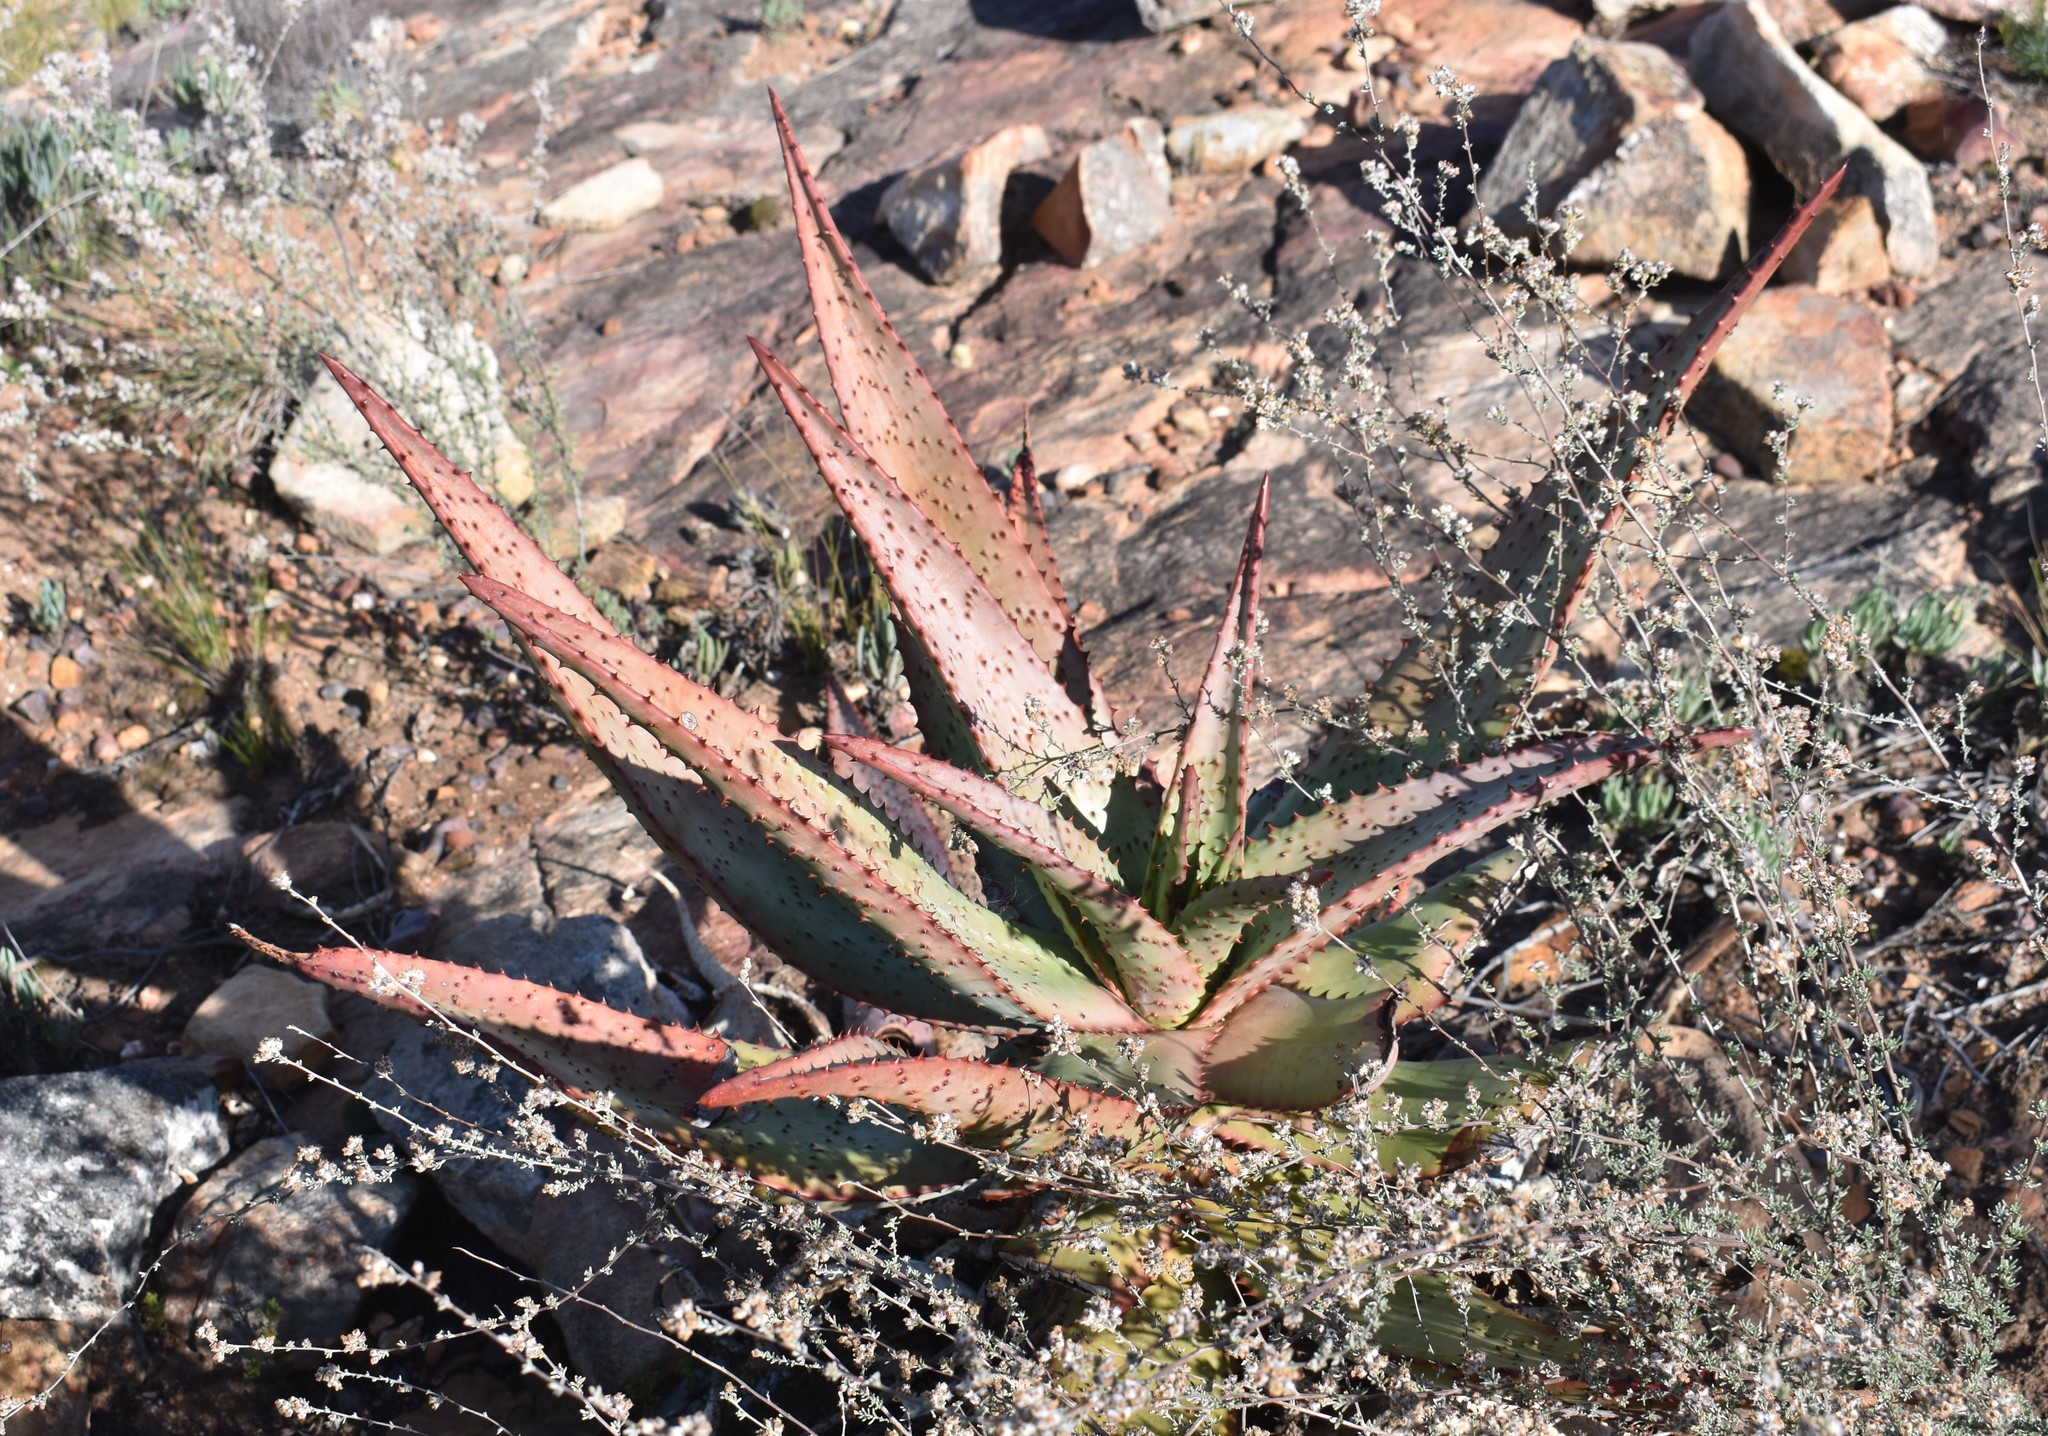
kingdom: Plantae
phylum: Tracheophyta
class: Liliopsida
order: Asparagales
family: Asphodelaceae
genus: Aloe
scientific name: Aloe ferox
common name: Bitter aloe
